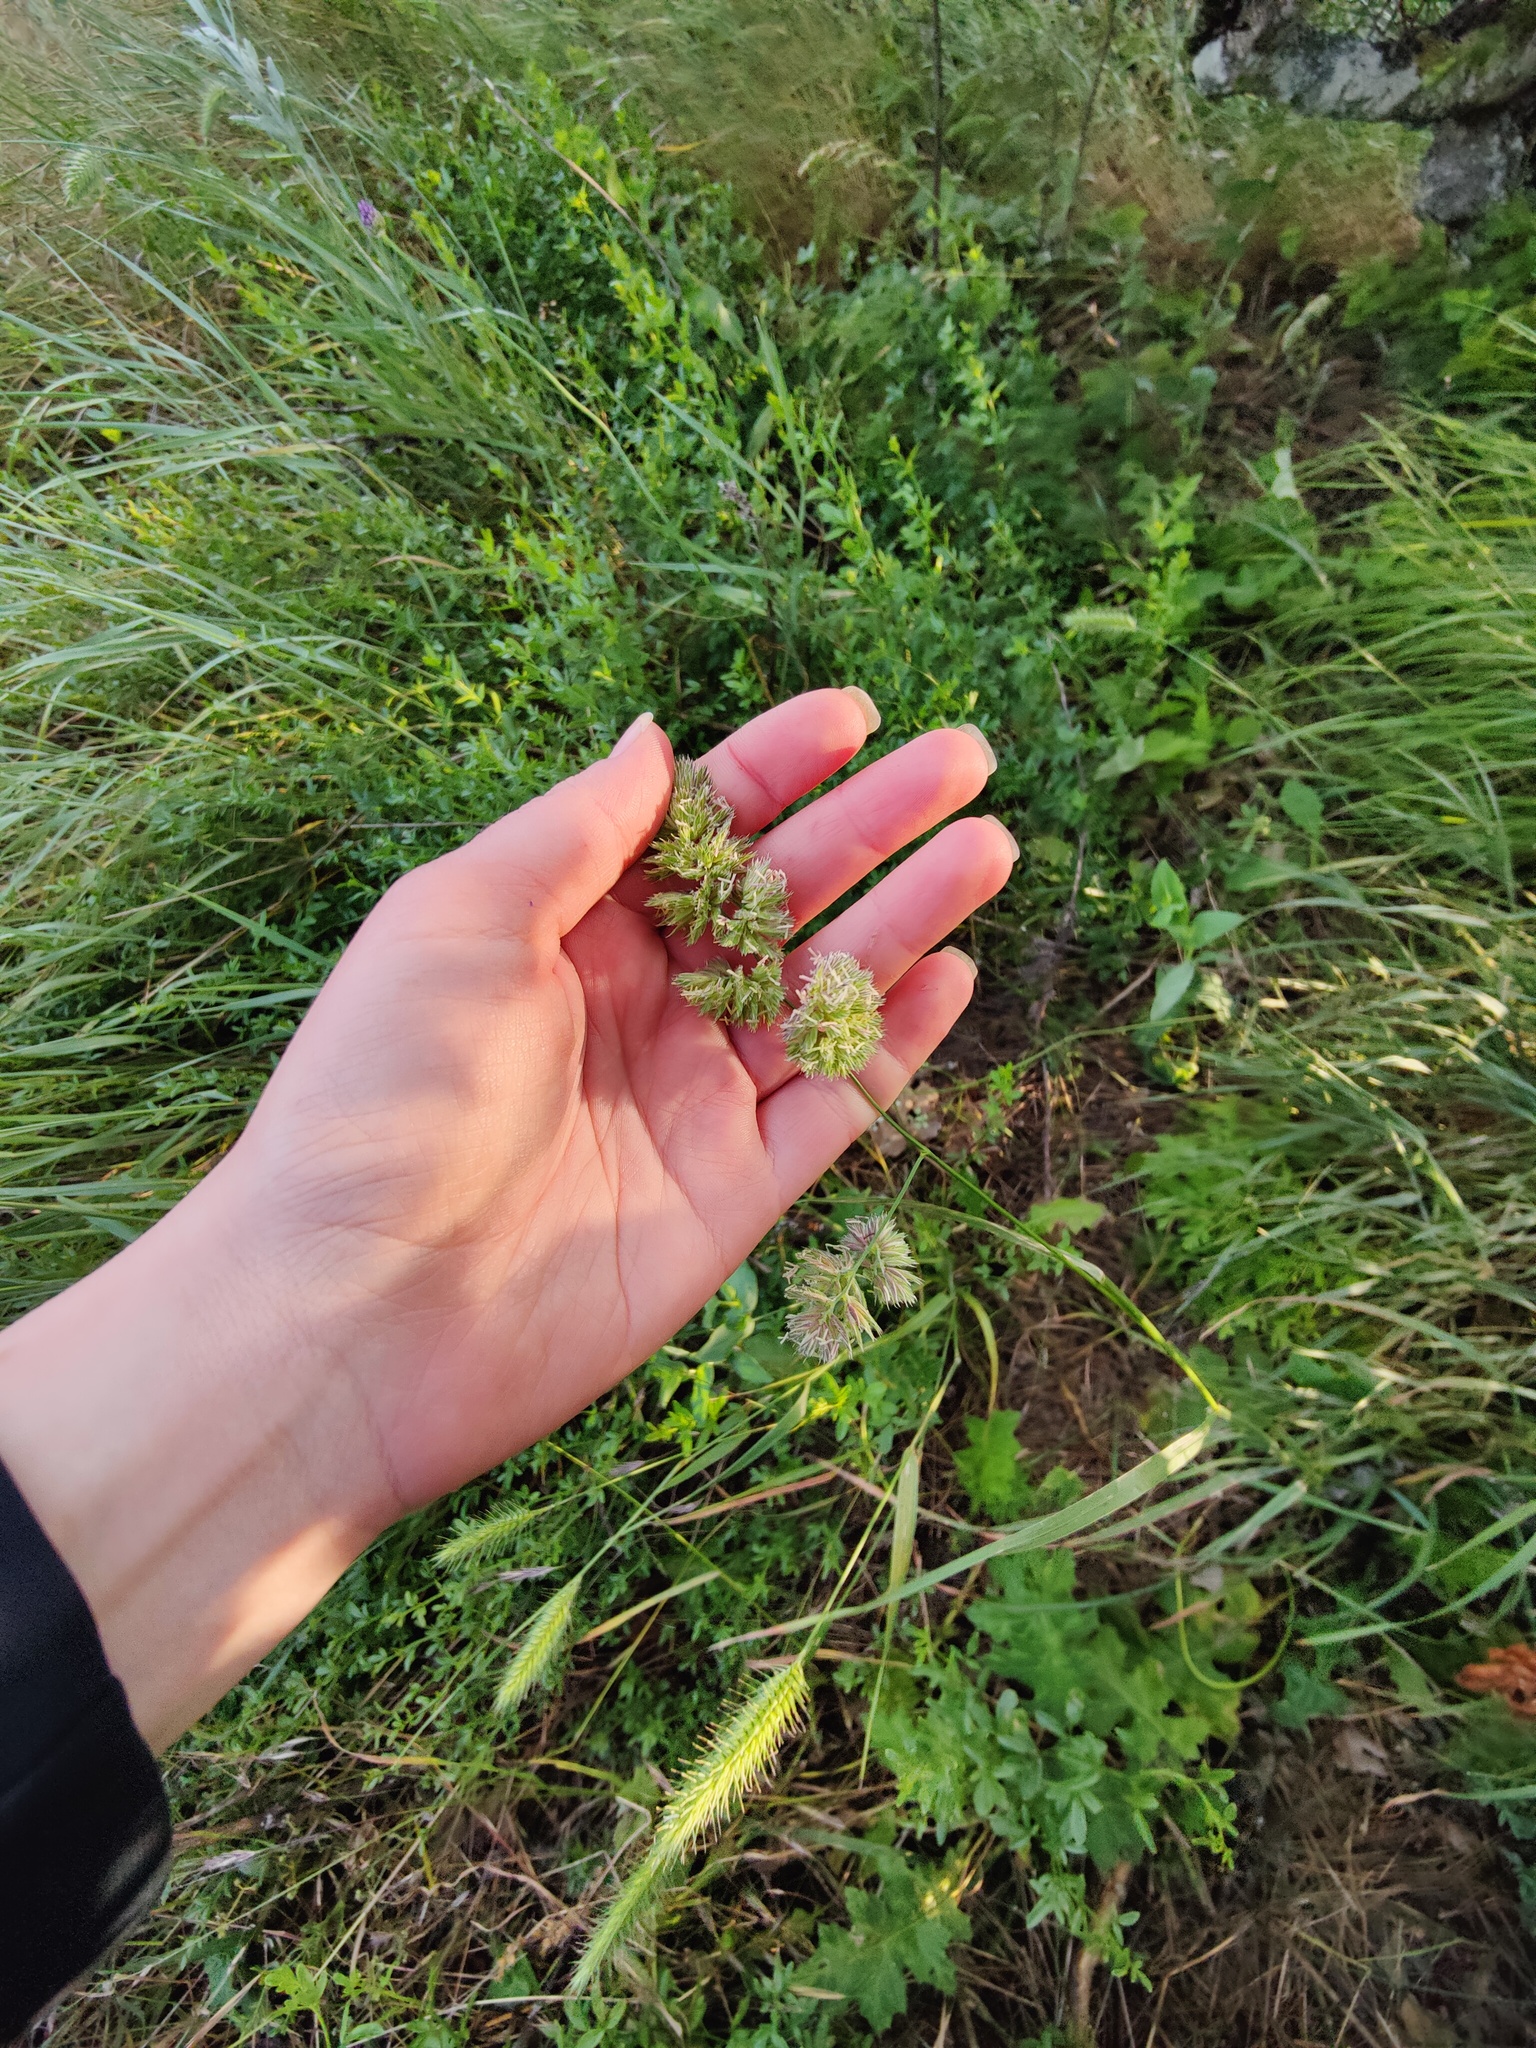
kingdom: Plantae
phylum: Tracheophyta
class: Liliopsida
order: Poales
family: Poaceae
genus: Dactylis
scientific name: Dactylis glomerata
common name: Orchardgrass
